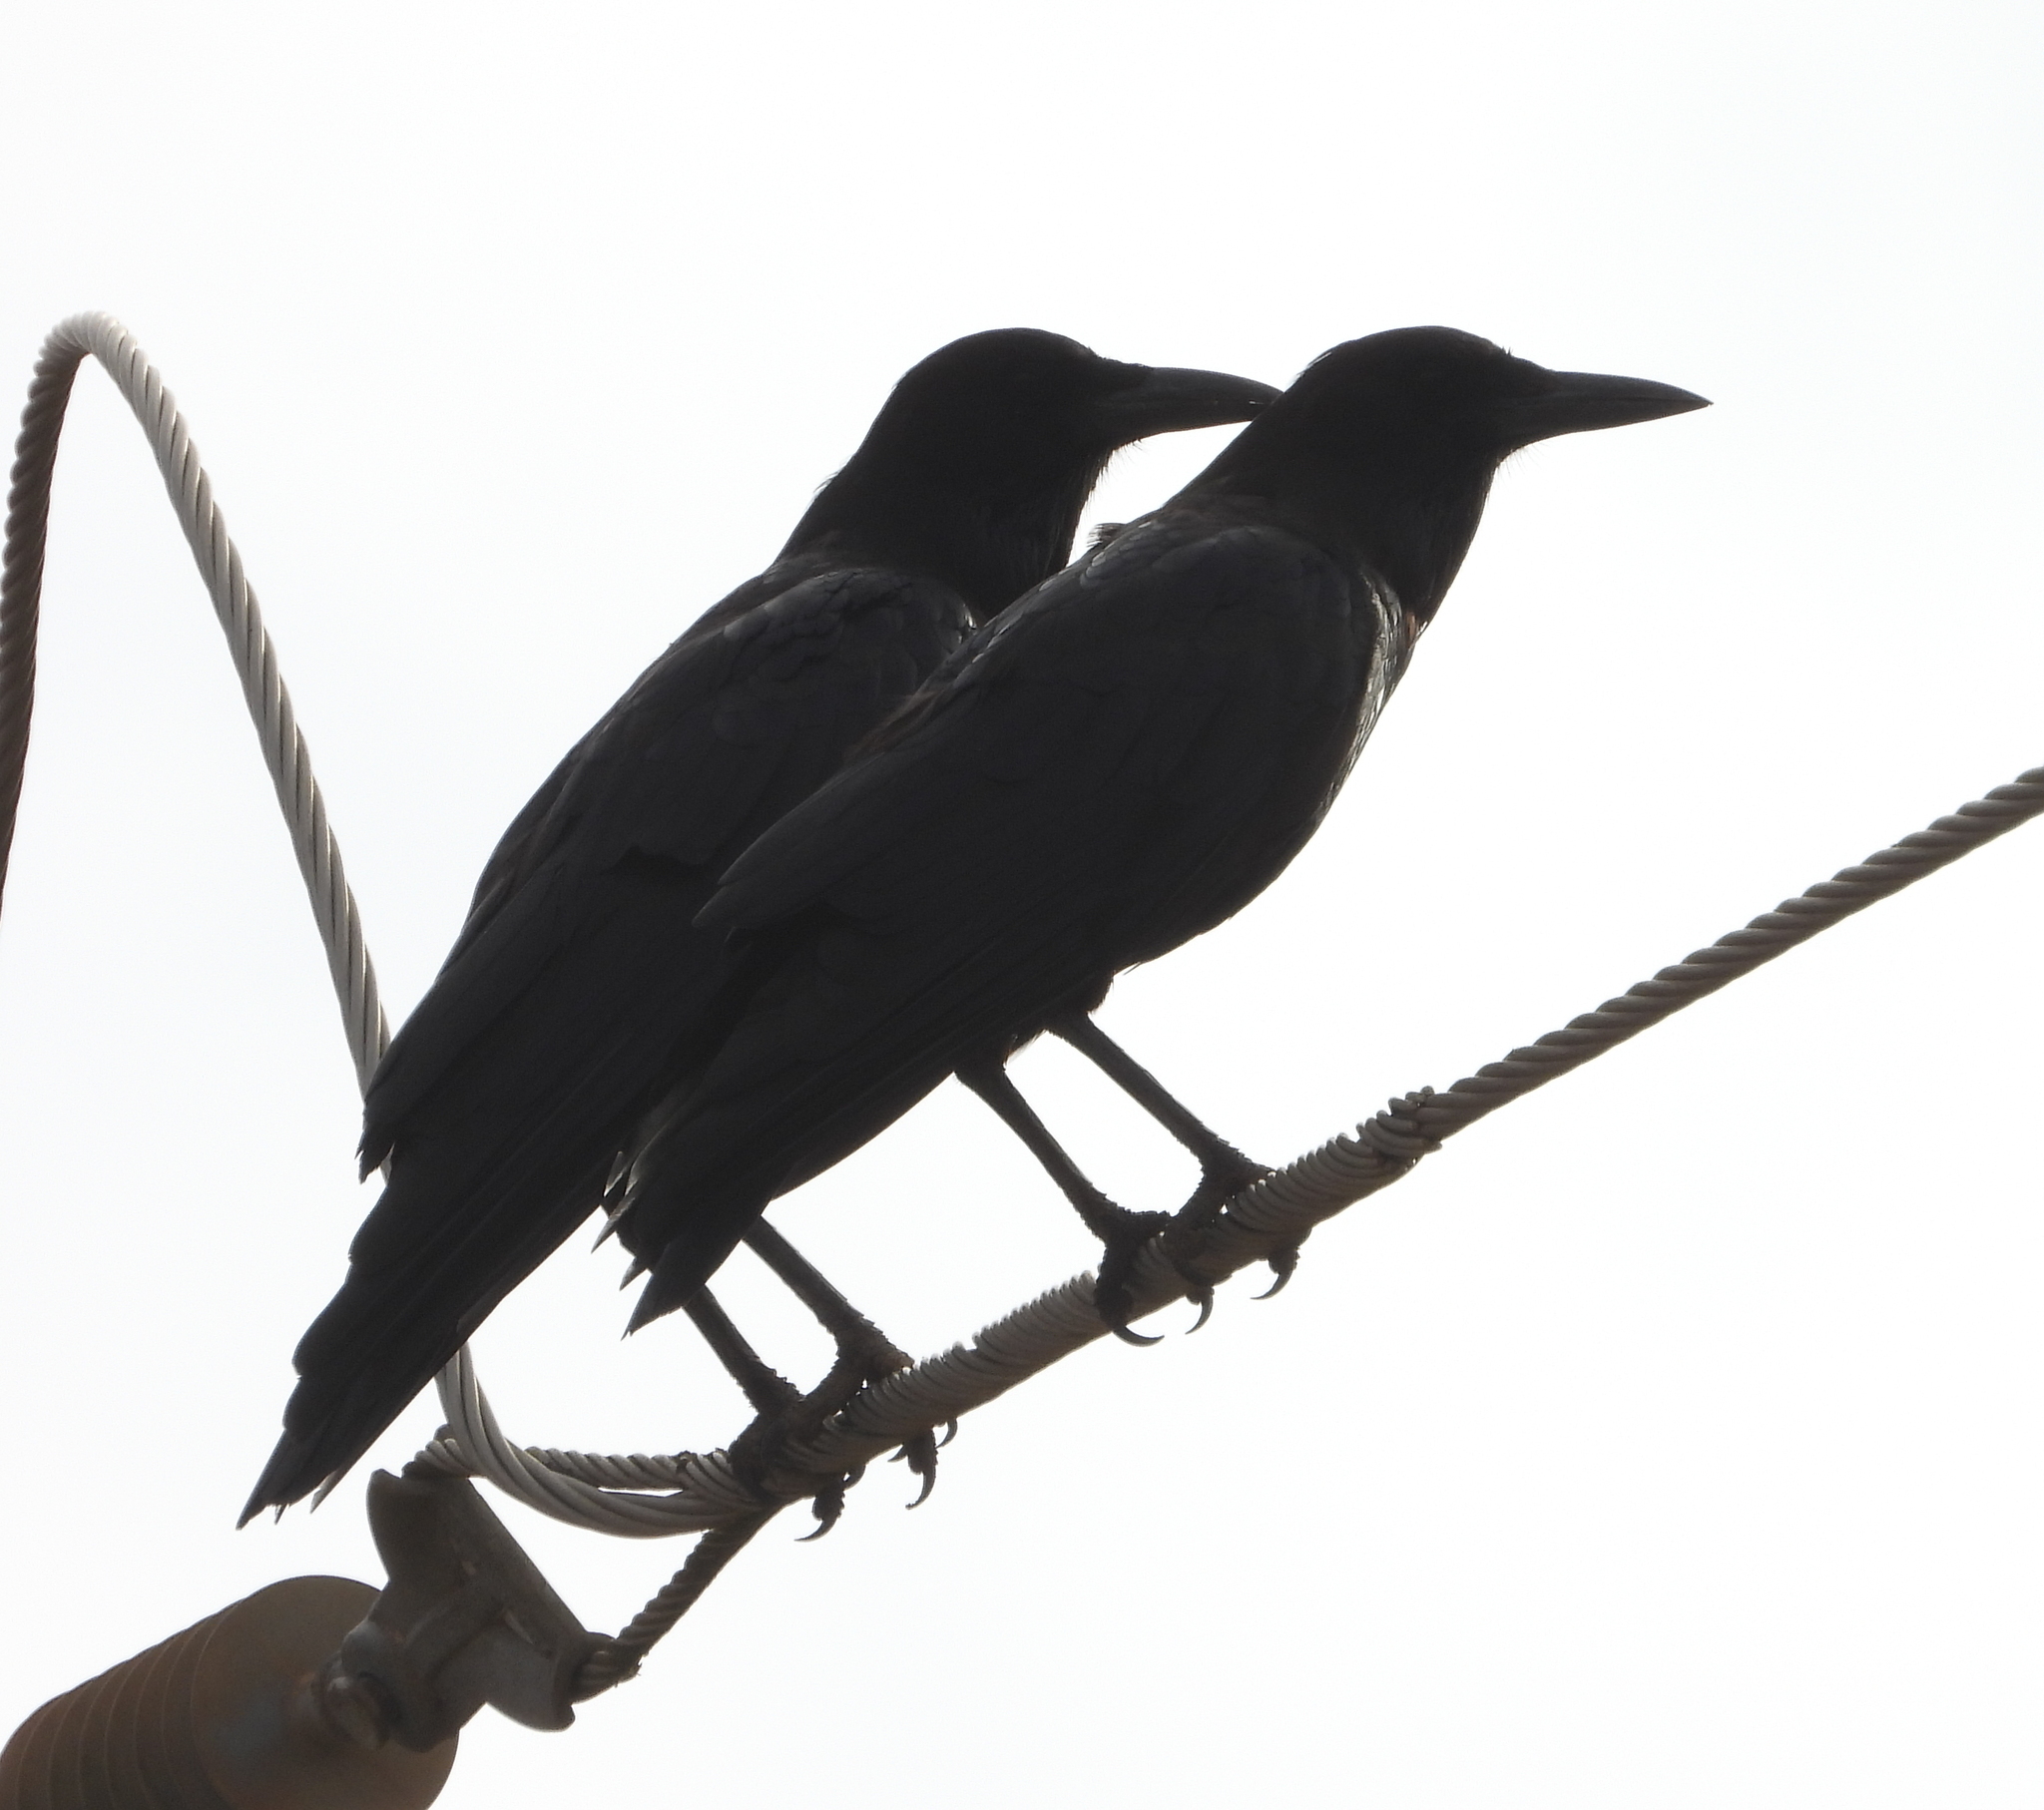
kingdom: Animalia
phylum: Chordata
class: Aves
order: Passeriformes
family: Corvidae
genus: Corvus
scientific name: Corvus capensis
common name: Cape crow
